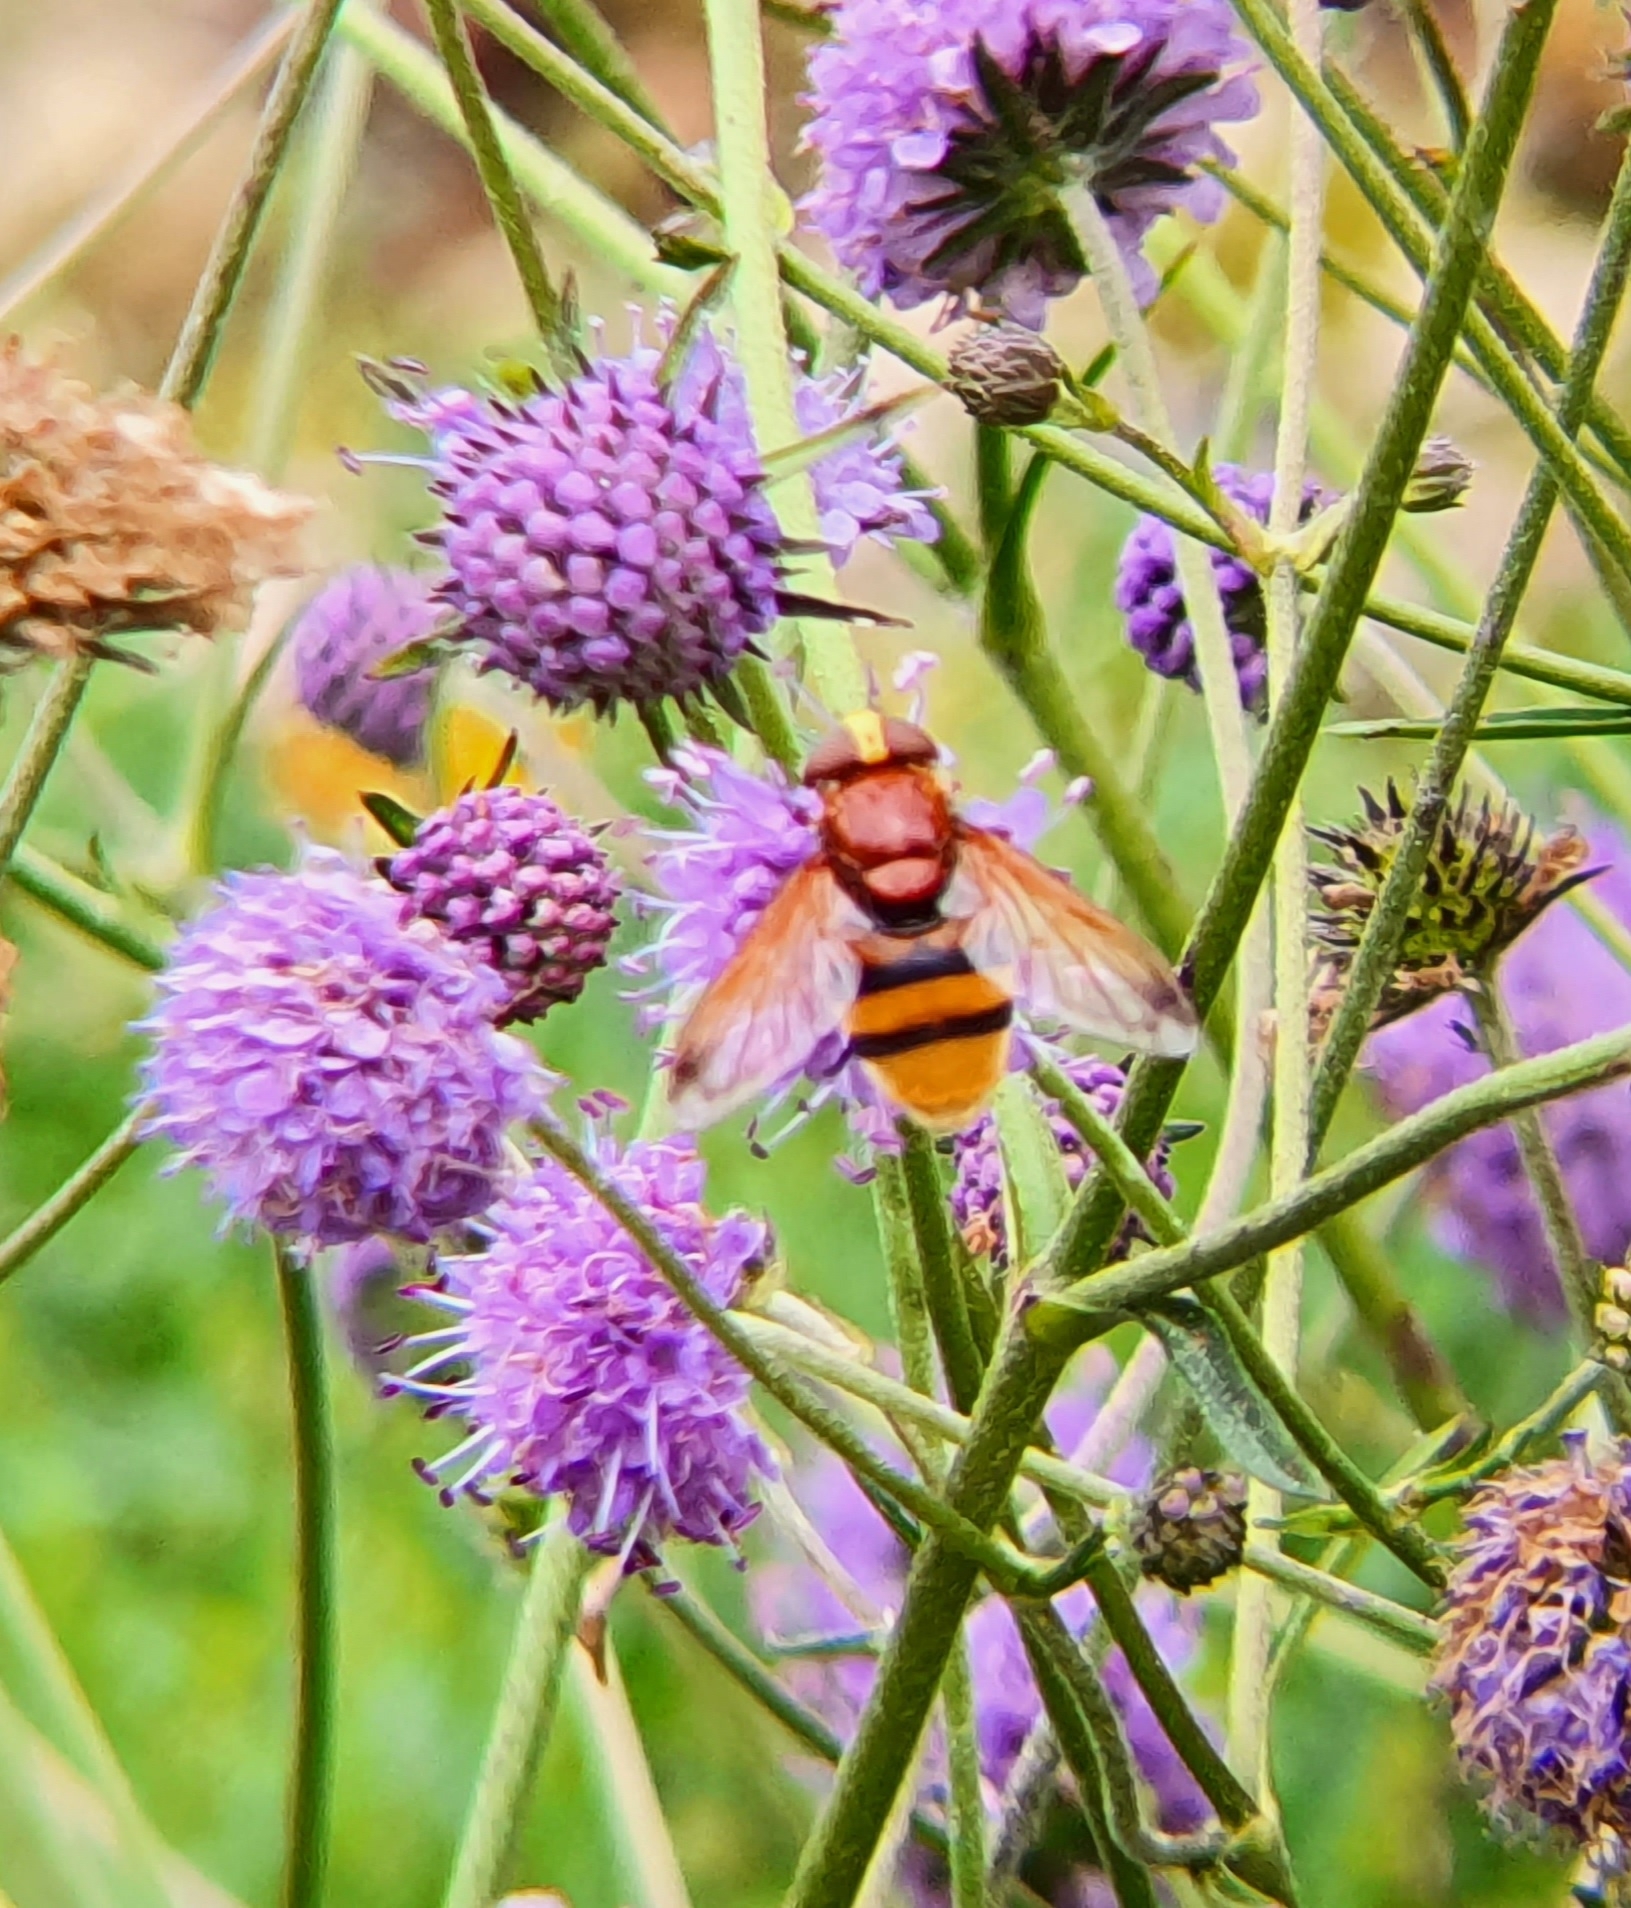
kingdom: Animalia
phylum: Arthropoda
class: Insecta
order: Diptera
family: Syrphidae
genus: Volucella
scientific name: Volucella zonaria
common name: Hornet hoverfly
